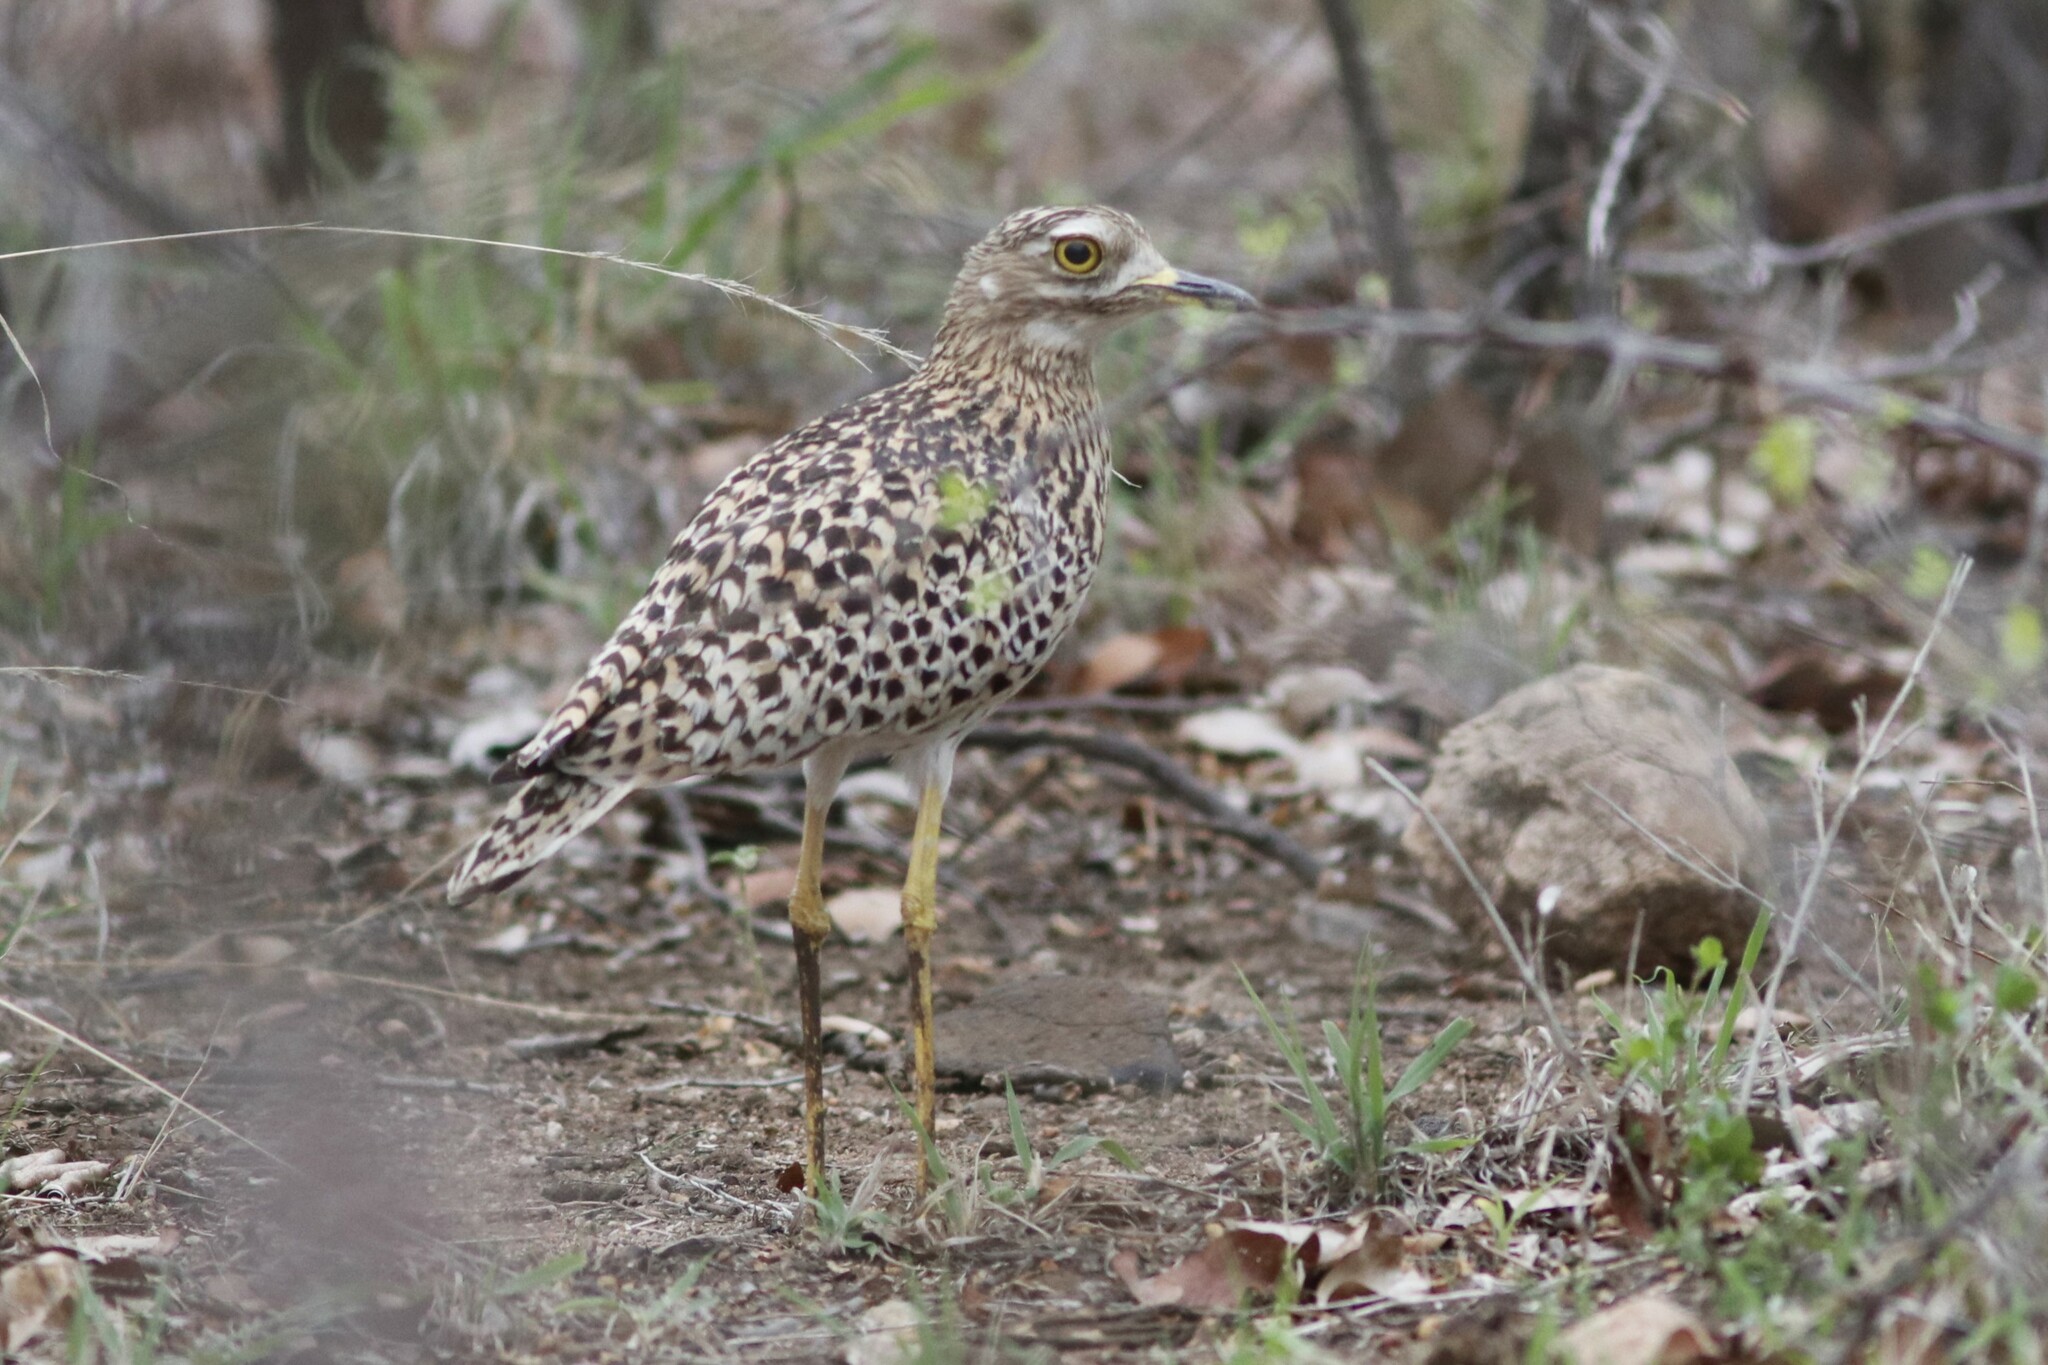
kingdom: Animalia
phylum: Chordata
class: Aves
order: Charadriiformes
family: Burhinidae
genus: Burhinus
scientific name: Burhinus capensis
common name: Spotted thick-knee
